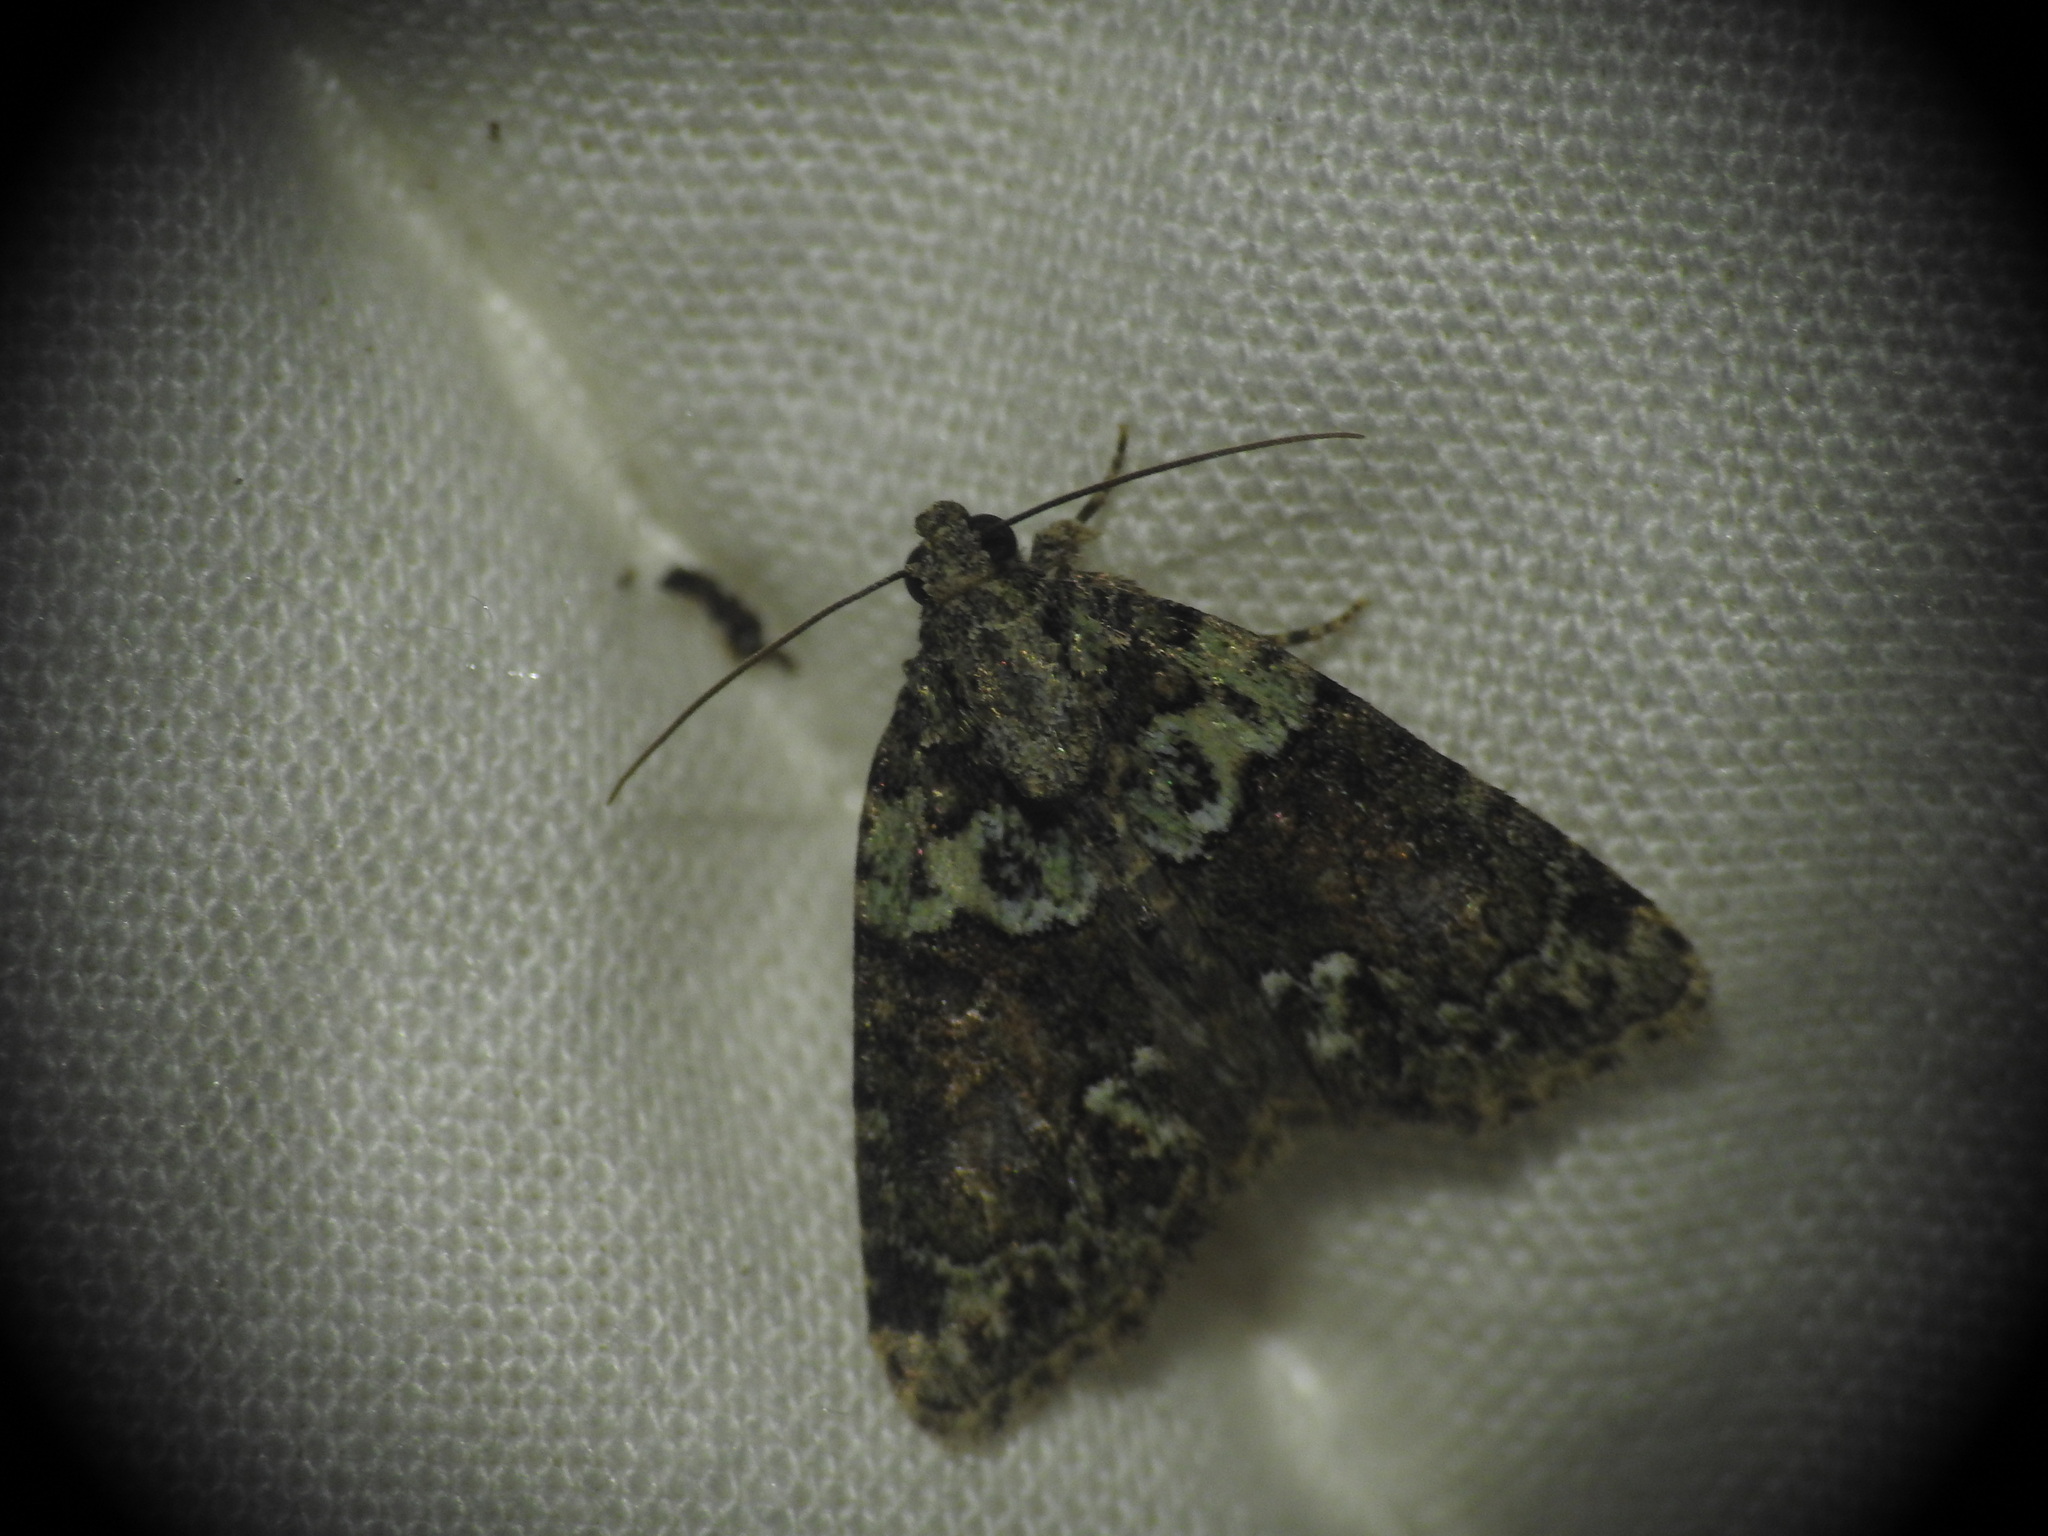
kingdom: Animalia
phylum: Arthropoda
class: Insecta
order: Lepidoptera
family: Noctuidae
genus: Cryphia
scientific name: Cryphia algae
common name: Tree-lichen beauty
